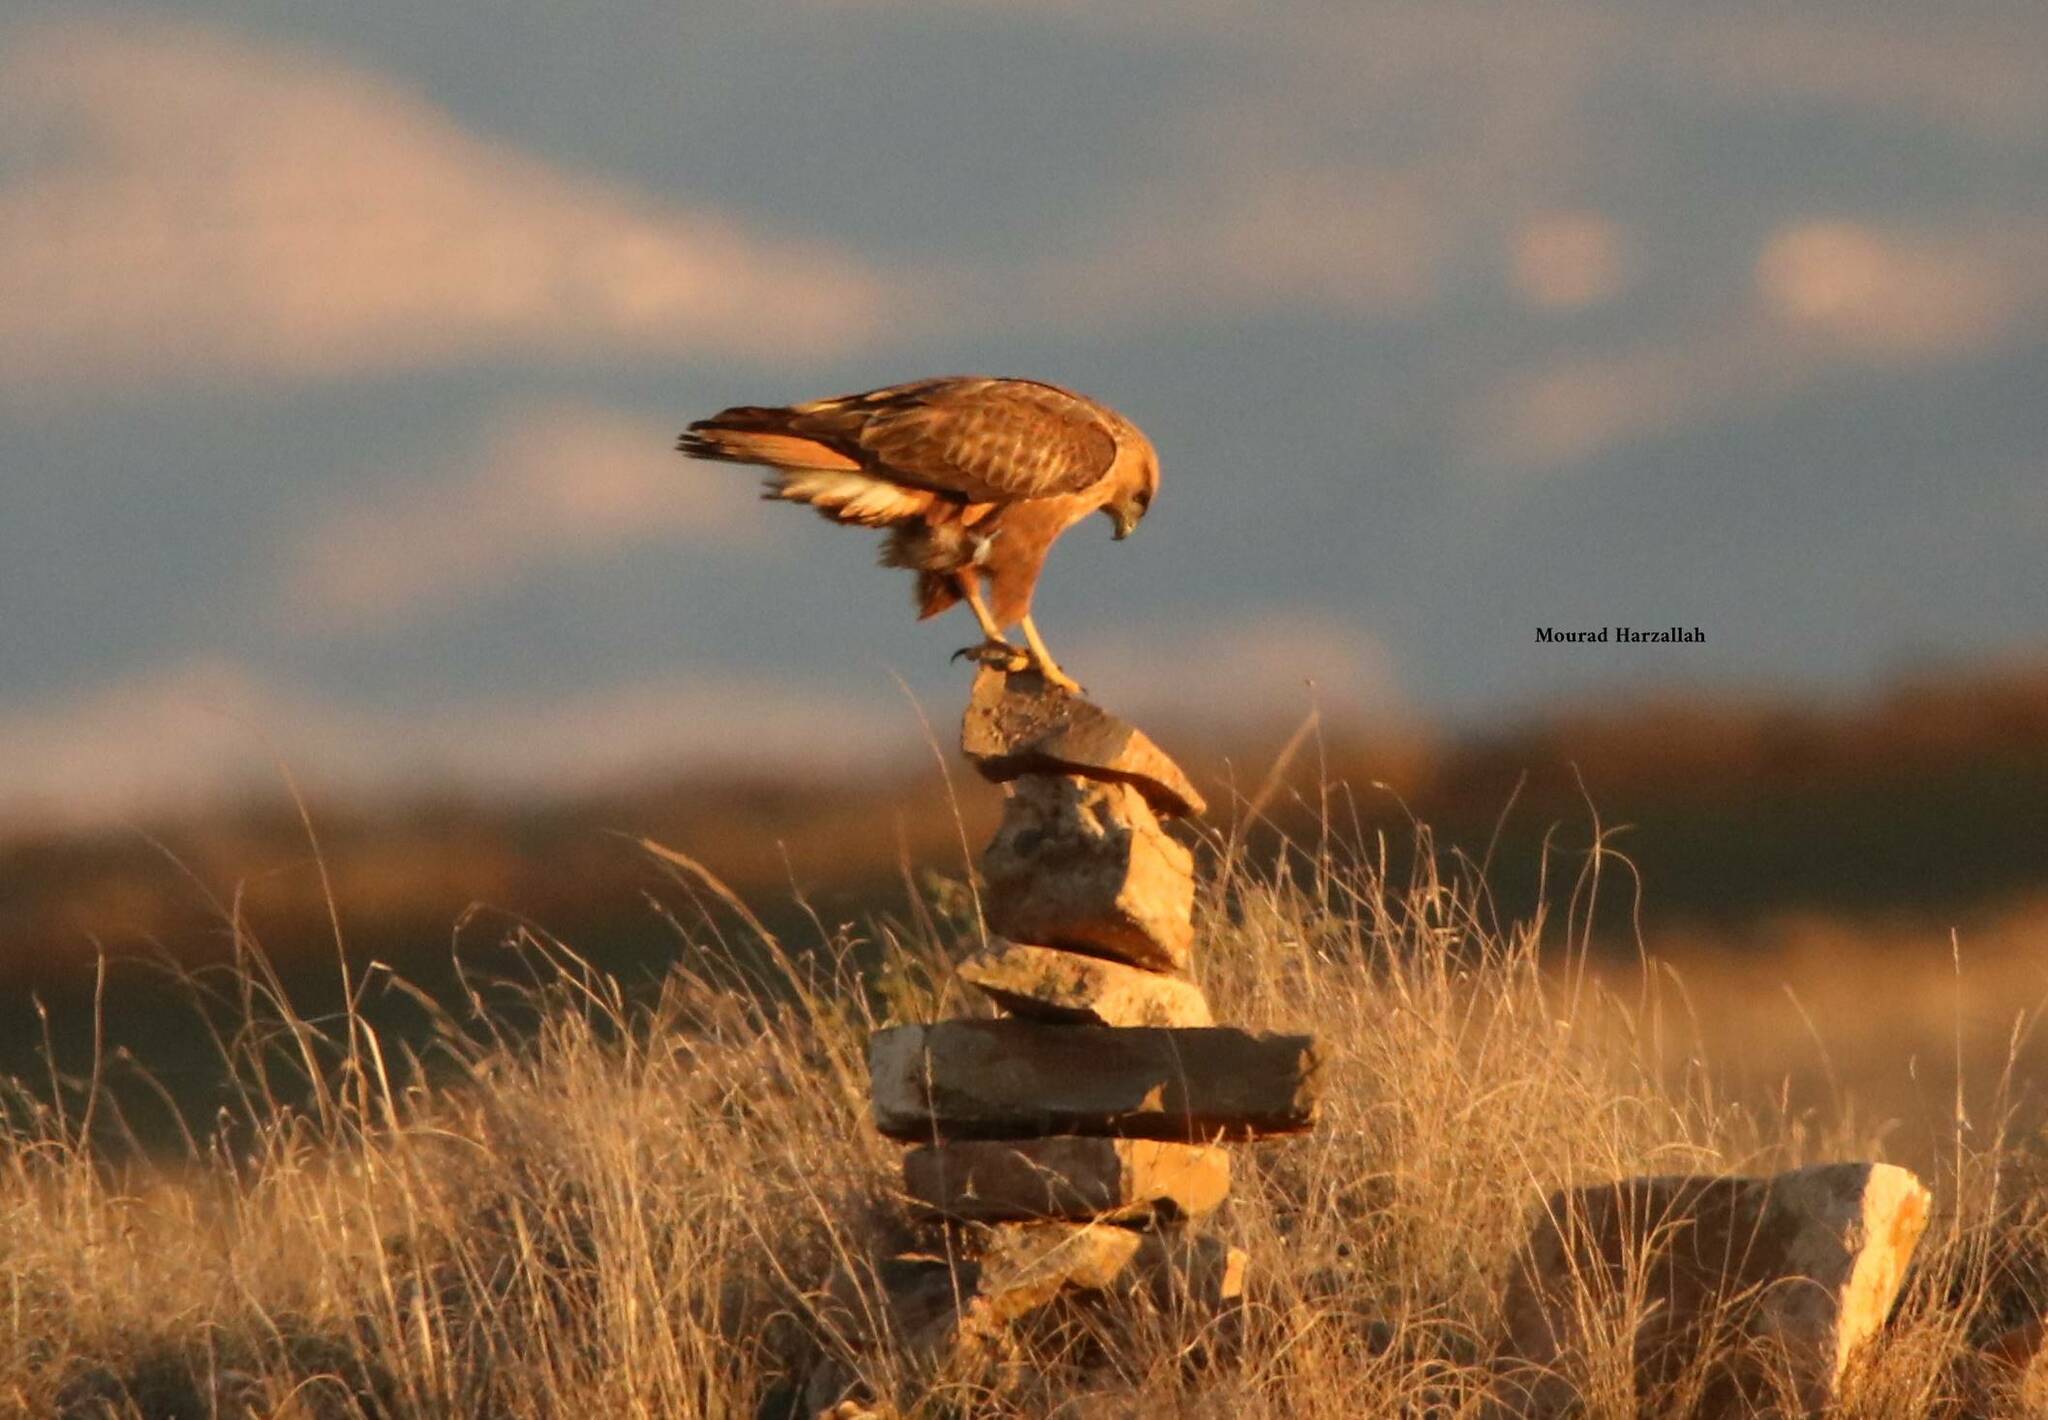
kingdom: Animalia
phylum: Chordata
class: Aves
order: Accipitriformes
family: Accipitridae
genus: Buteo
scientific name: Buteo rufinus
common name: Long-legged buzzard
